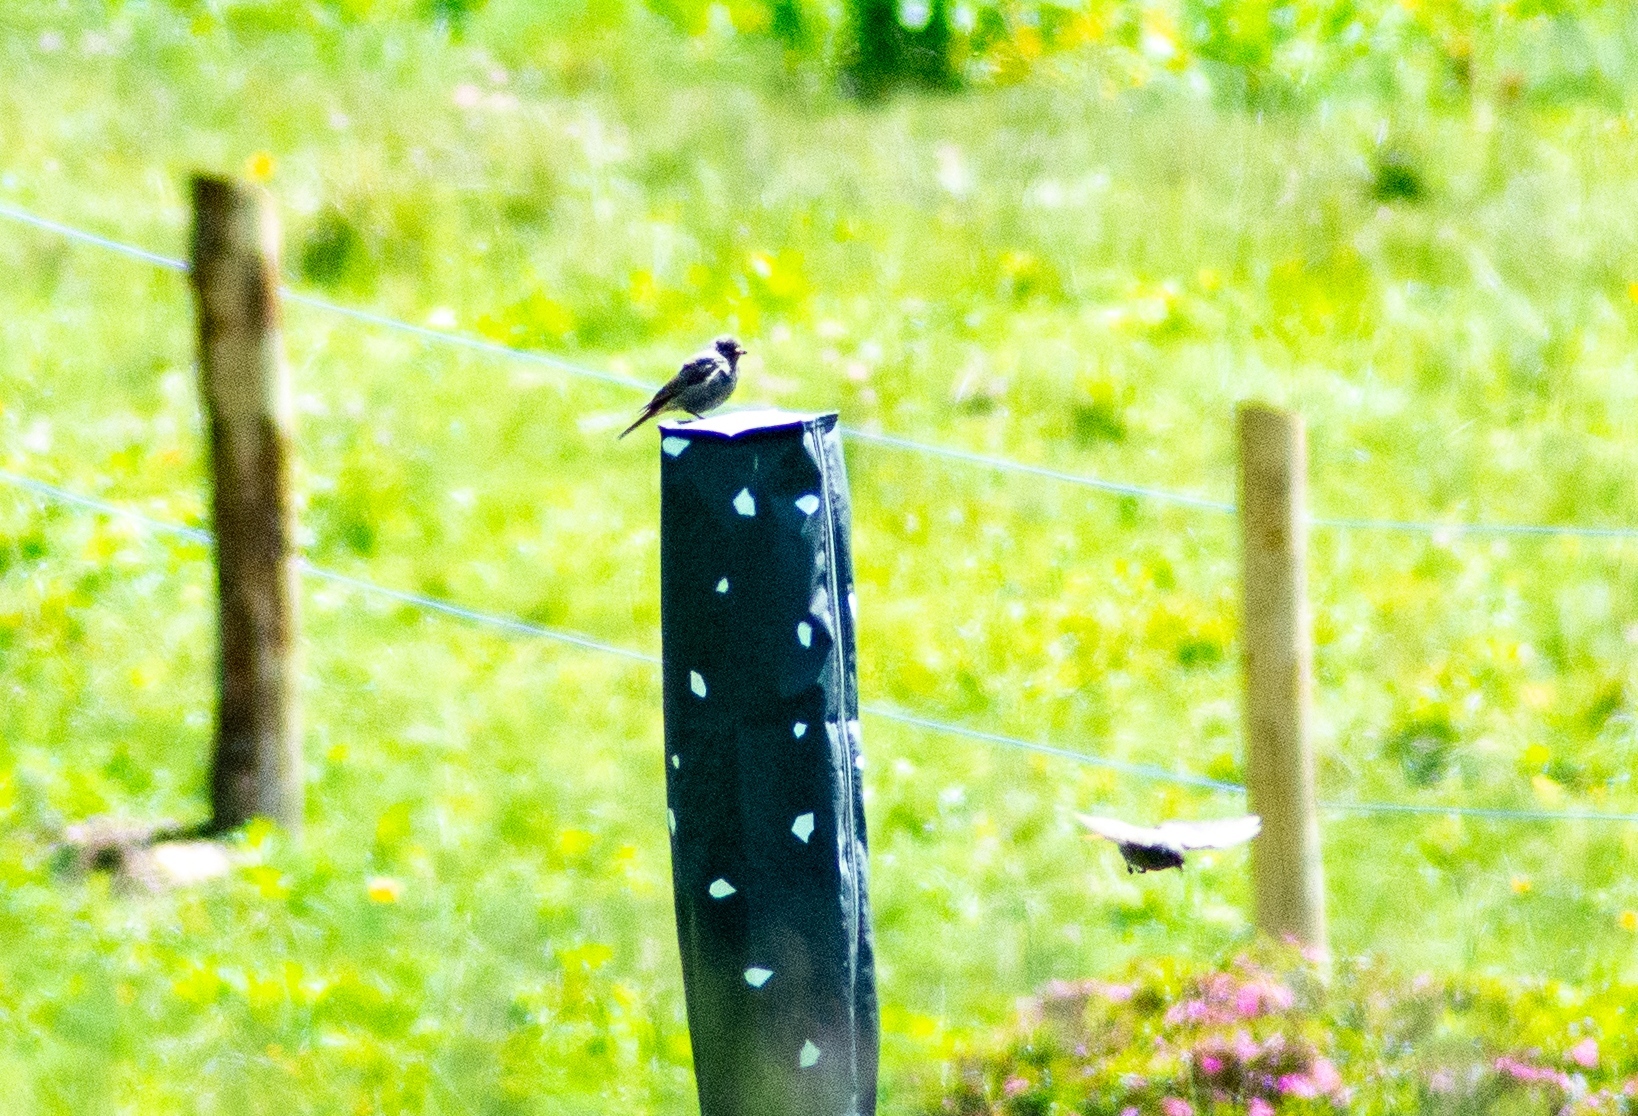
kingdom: Animalia
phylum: Chordata
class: Aves
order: Passeriformes
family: Muscicapidae
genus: Phoenicurus
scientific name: Phoenicurus ochruros
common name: Black redstart
